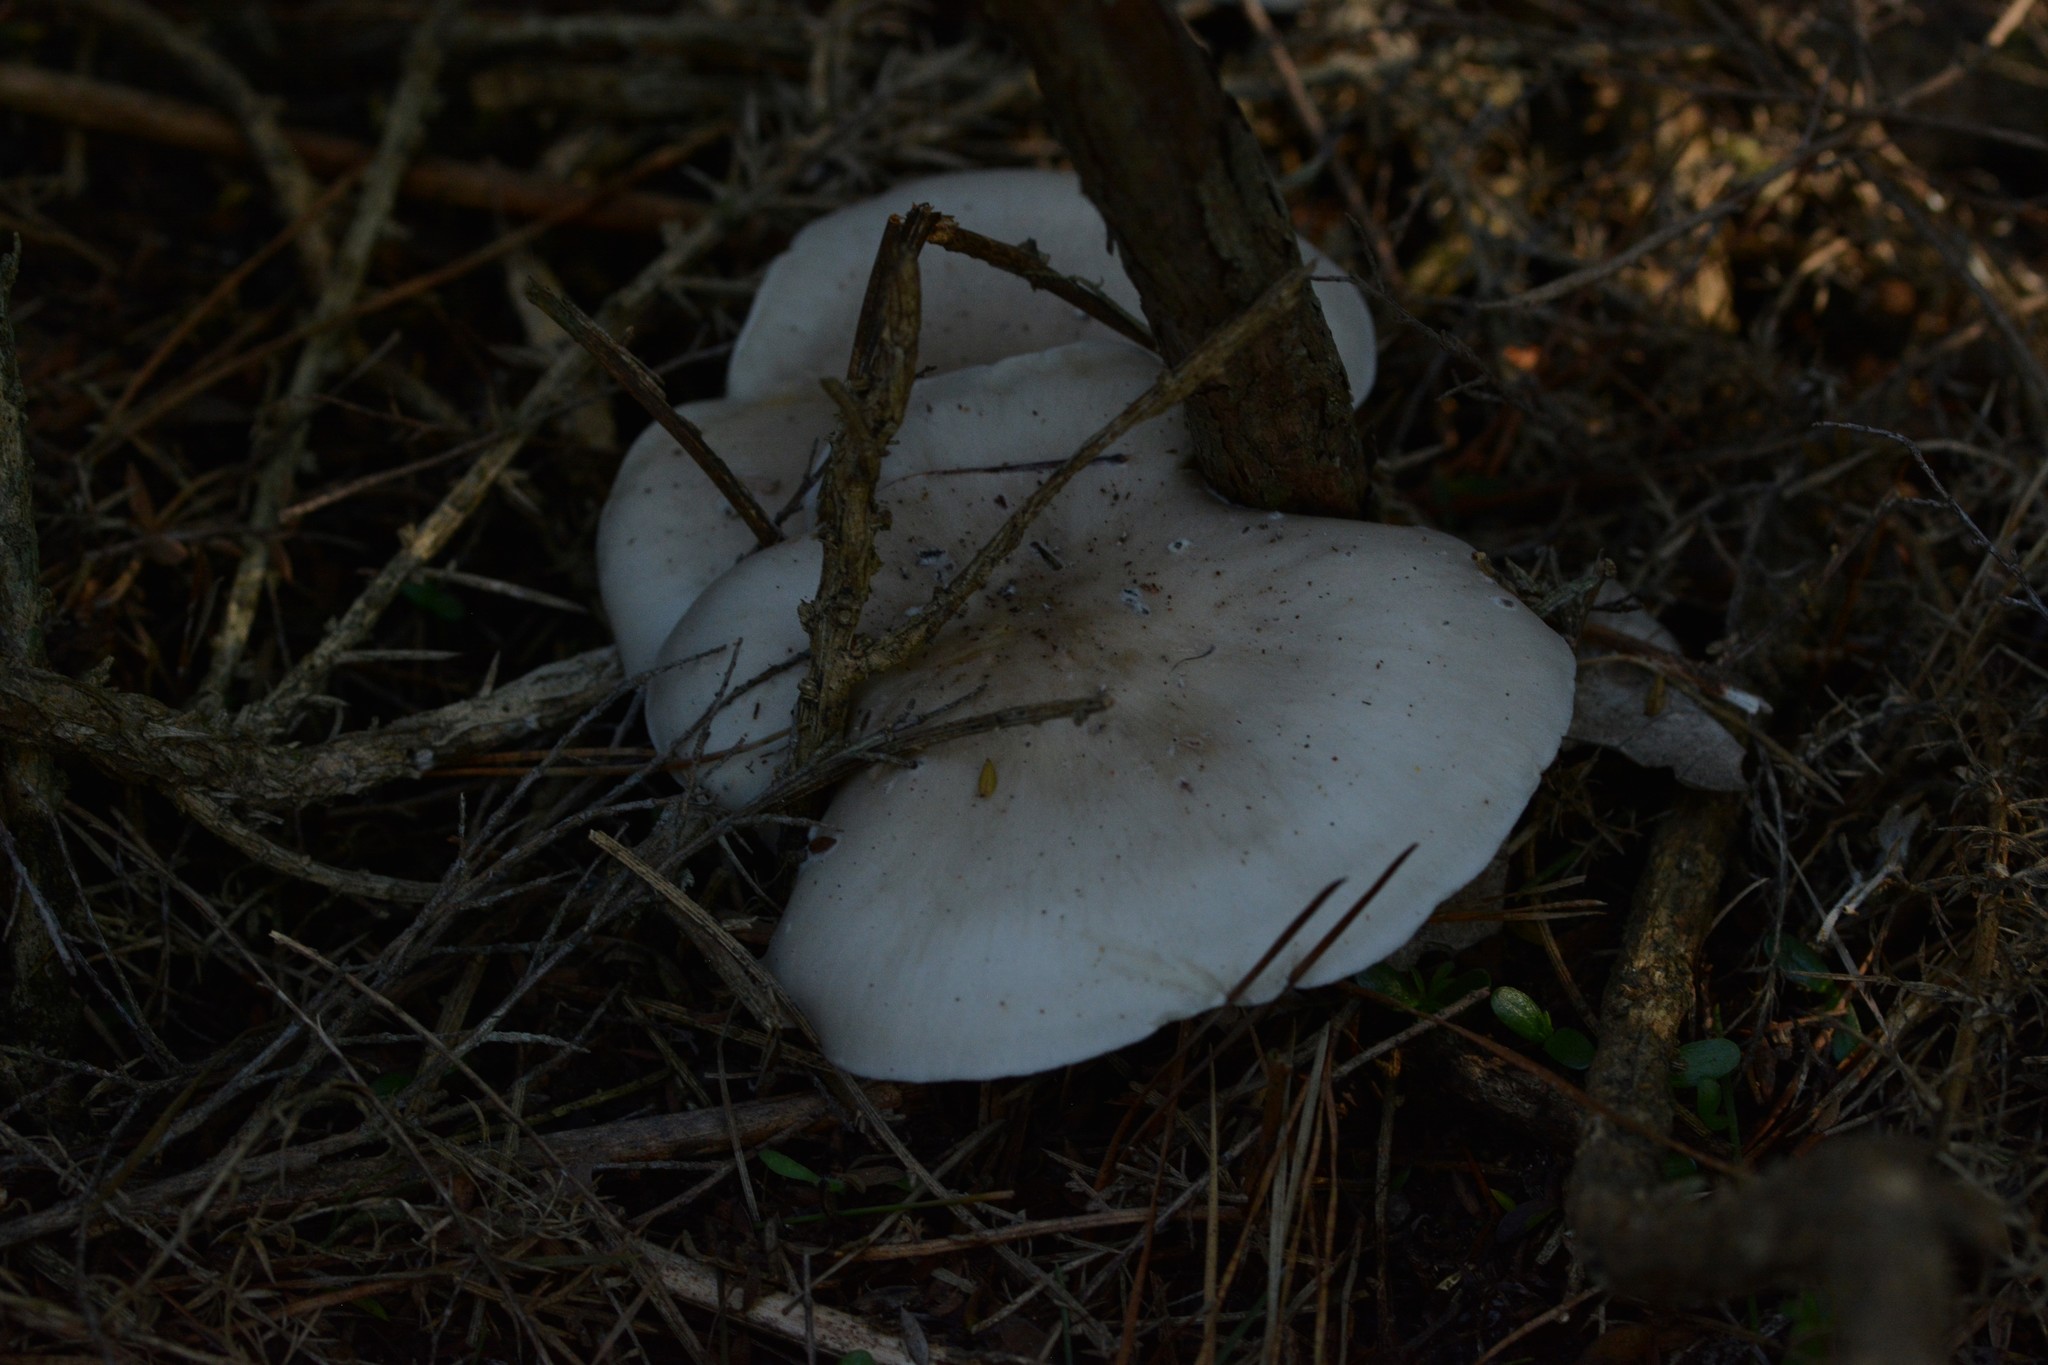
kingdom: Fungi
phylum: Basidiomycota
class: Agaricomycetes
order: Agaricales
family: Tricholomataceae
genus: Clitocybe
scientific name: Clitocybe nebularis
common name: Clouded agaric
